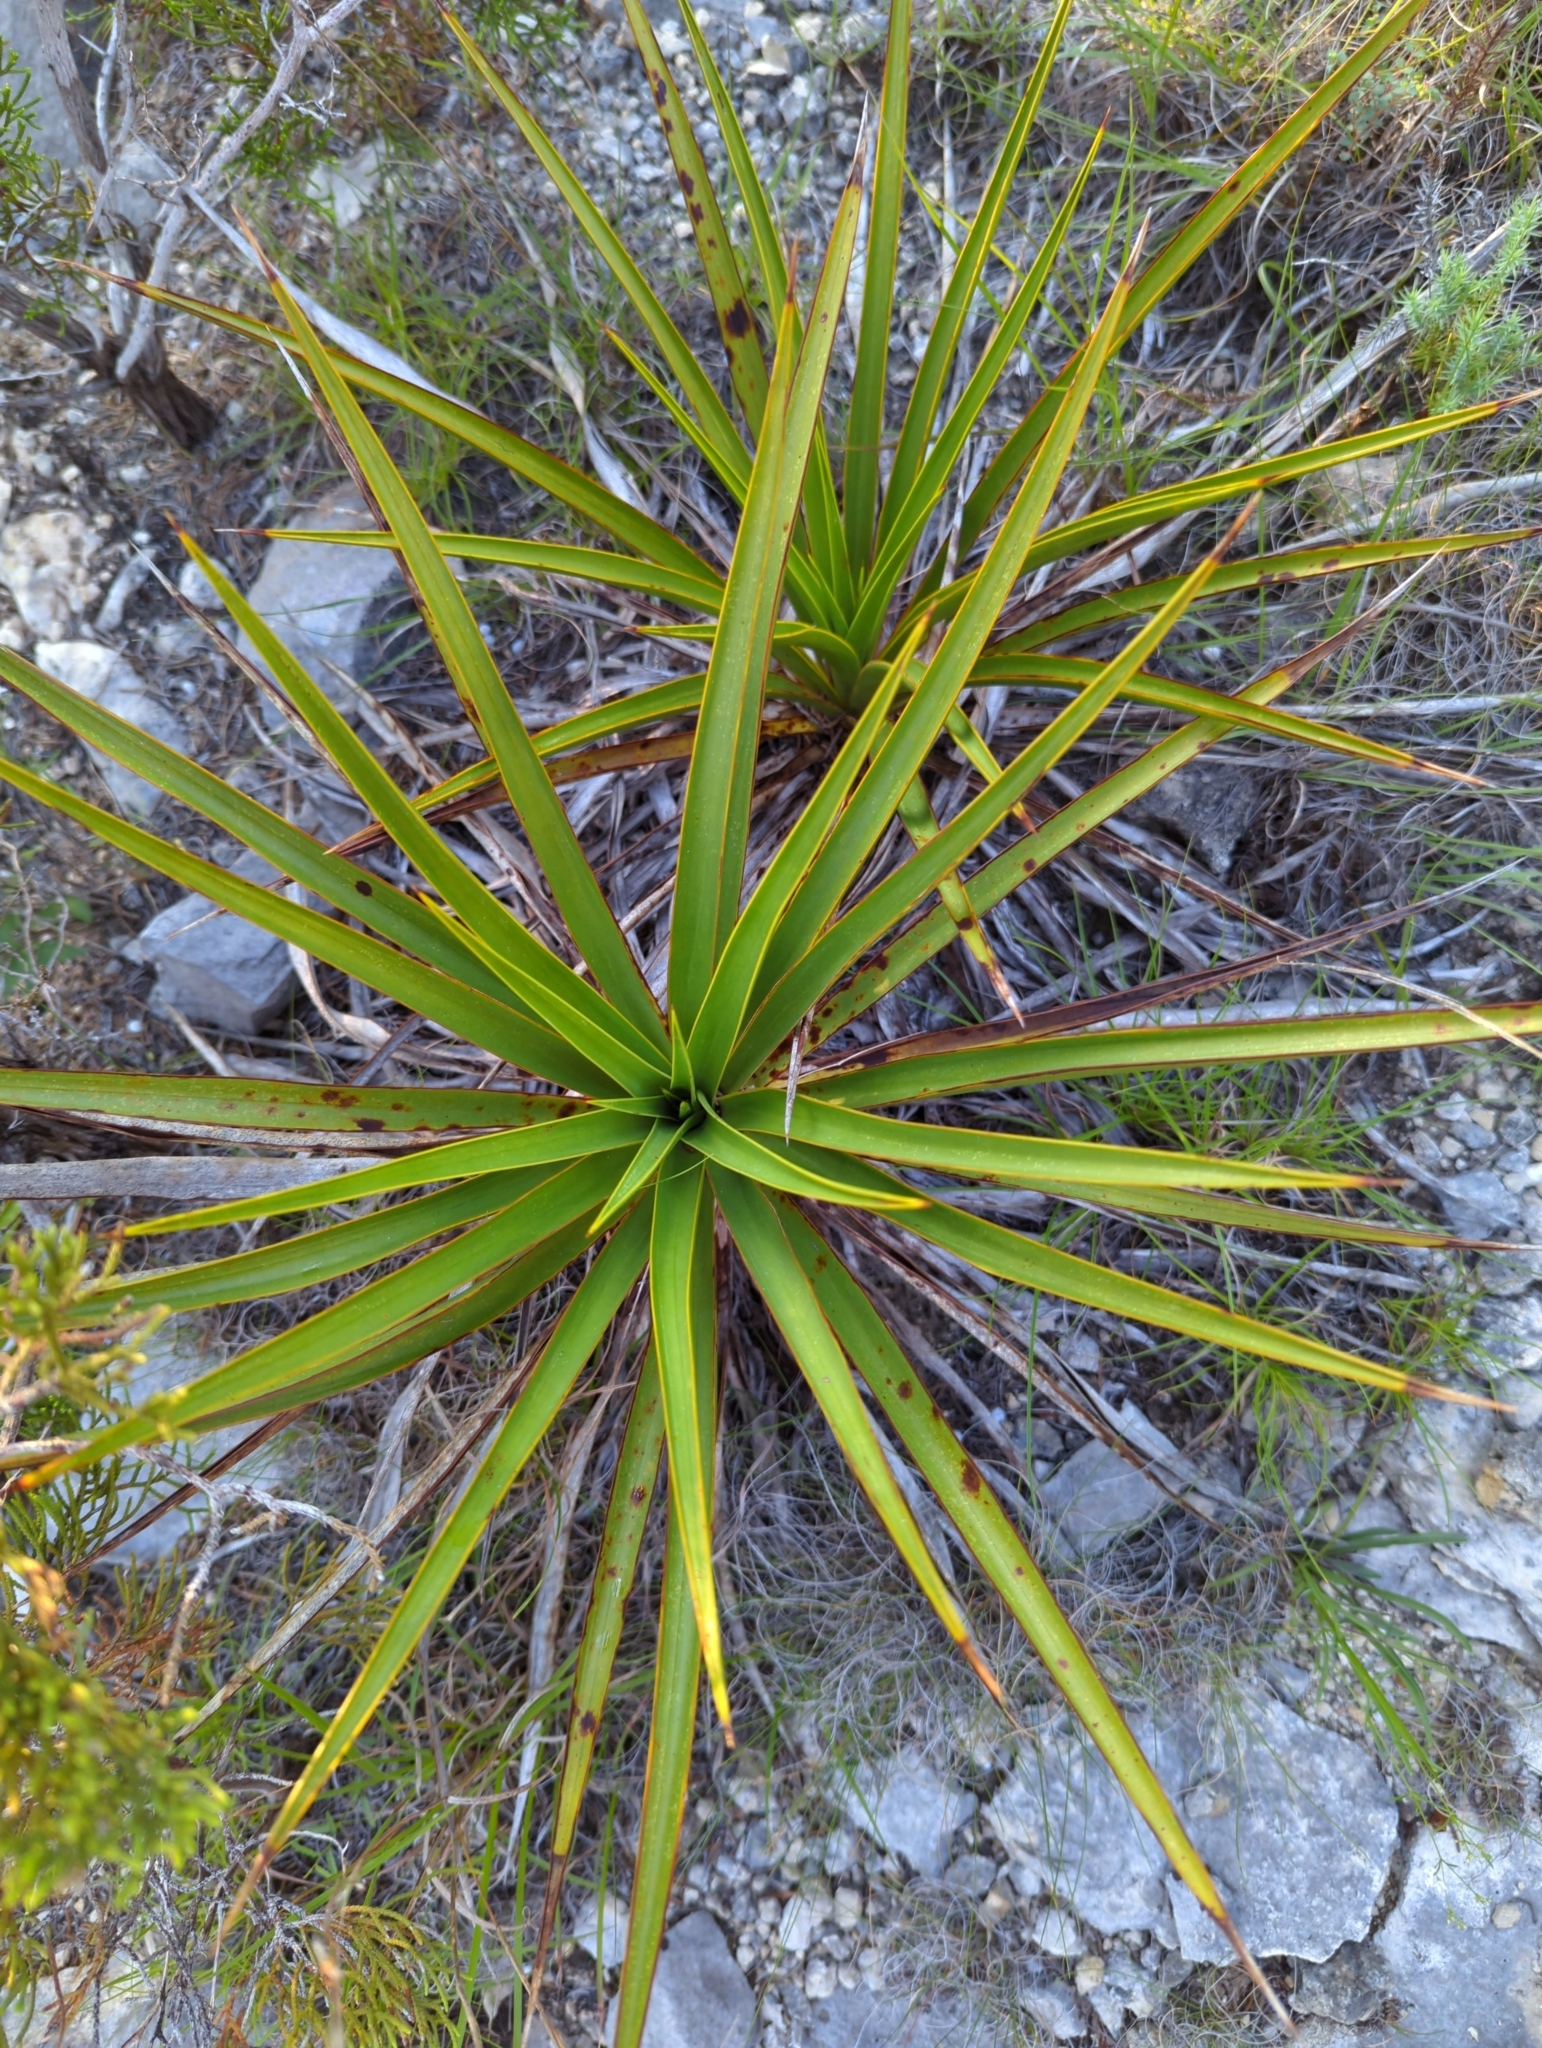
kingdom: Plantae
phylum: Tracheophyta
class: Liliopsida
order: Asparagales
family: Asparagaceae
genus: Yucca
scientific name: Yucca rupicola
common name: Twisted-leaf spanish-dagger
